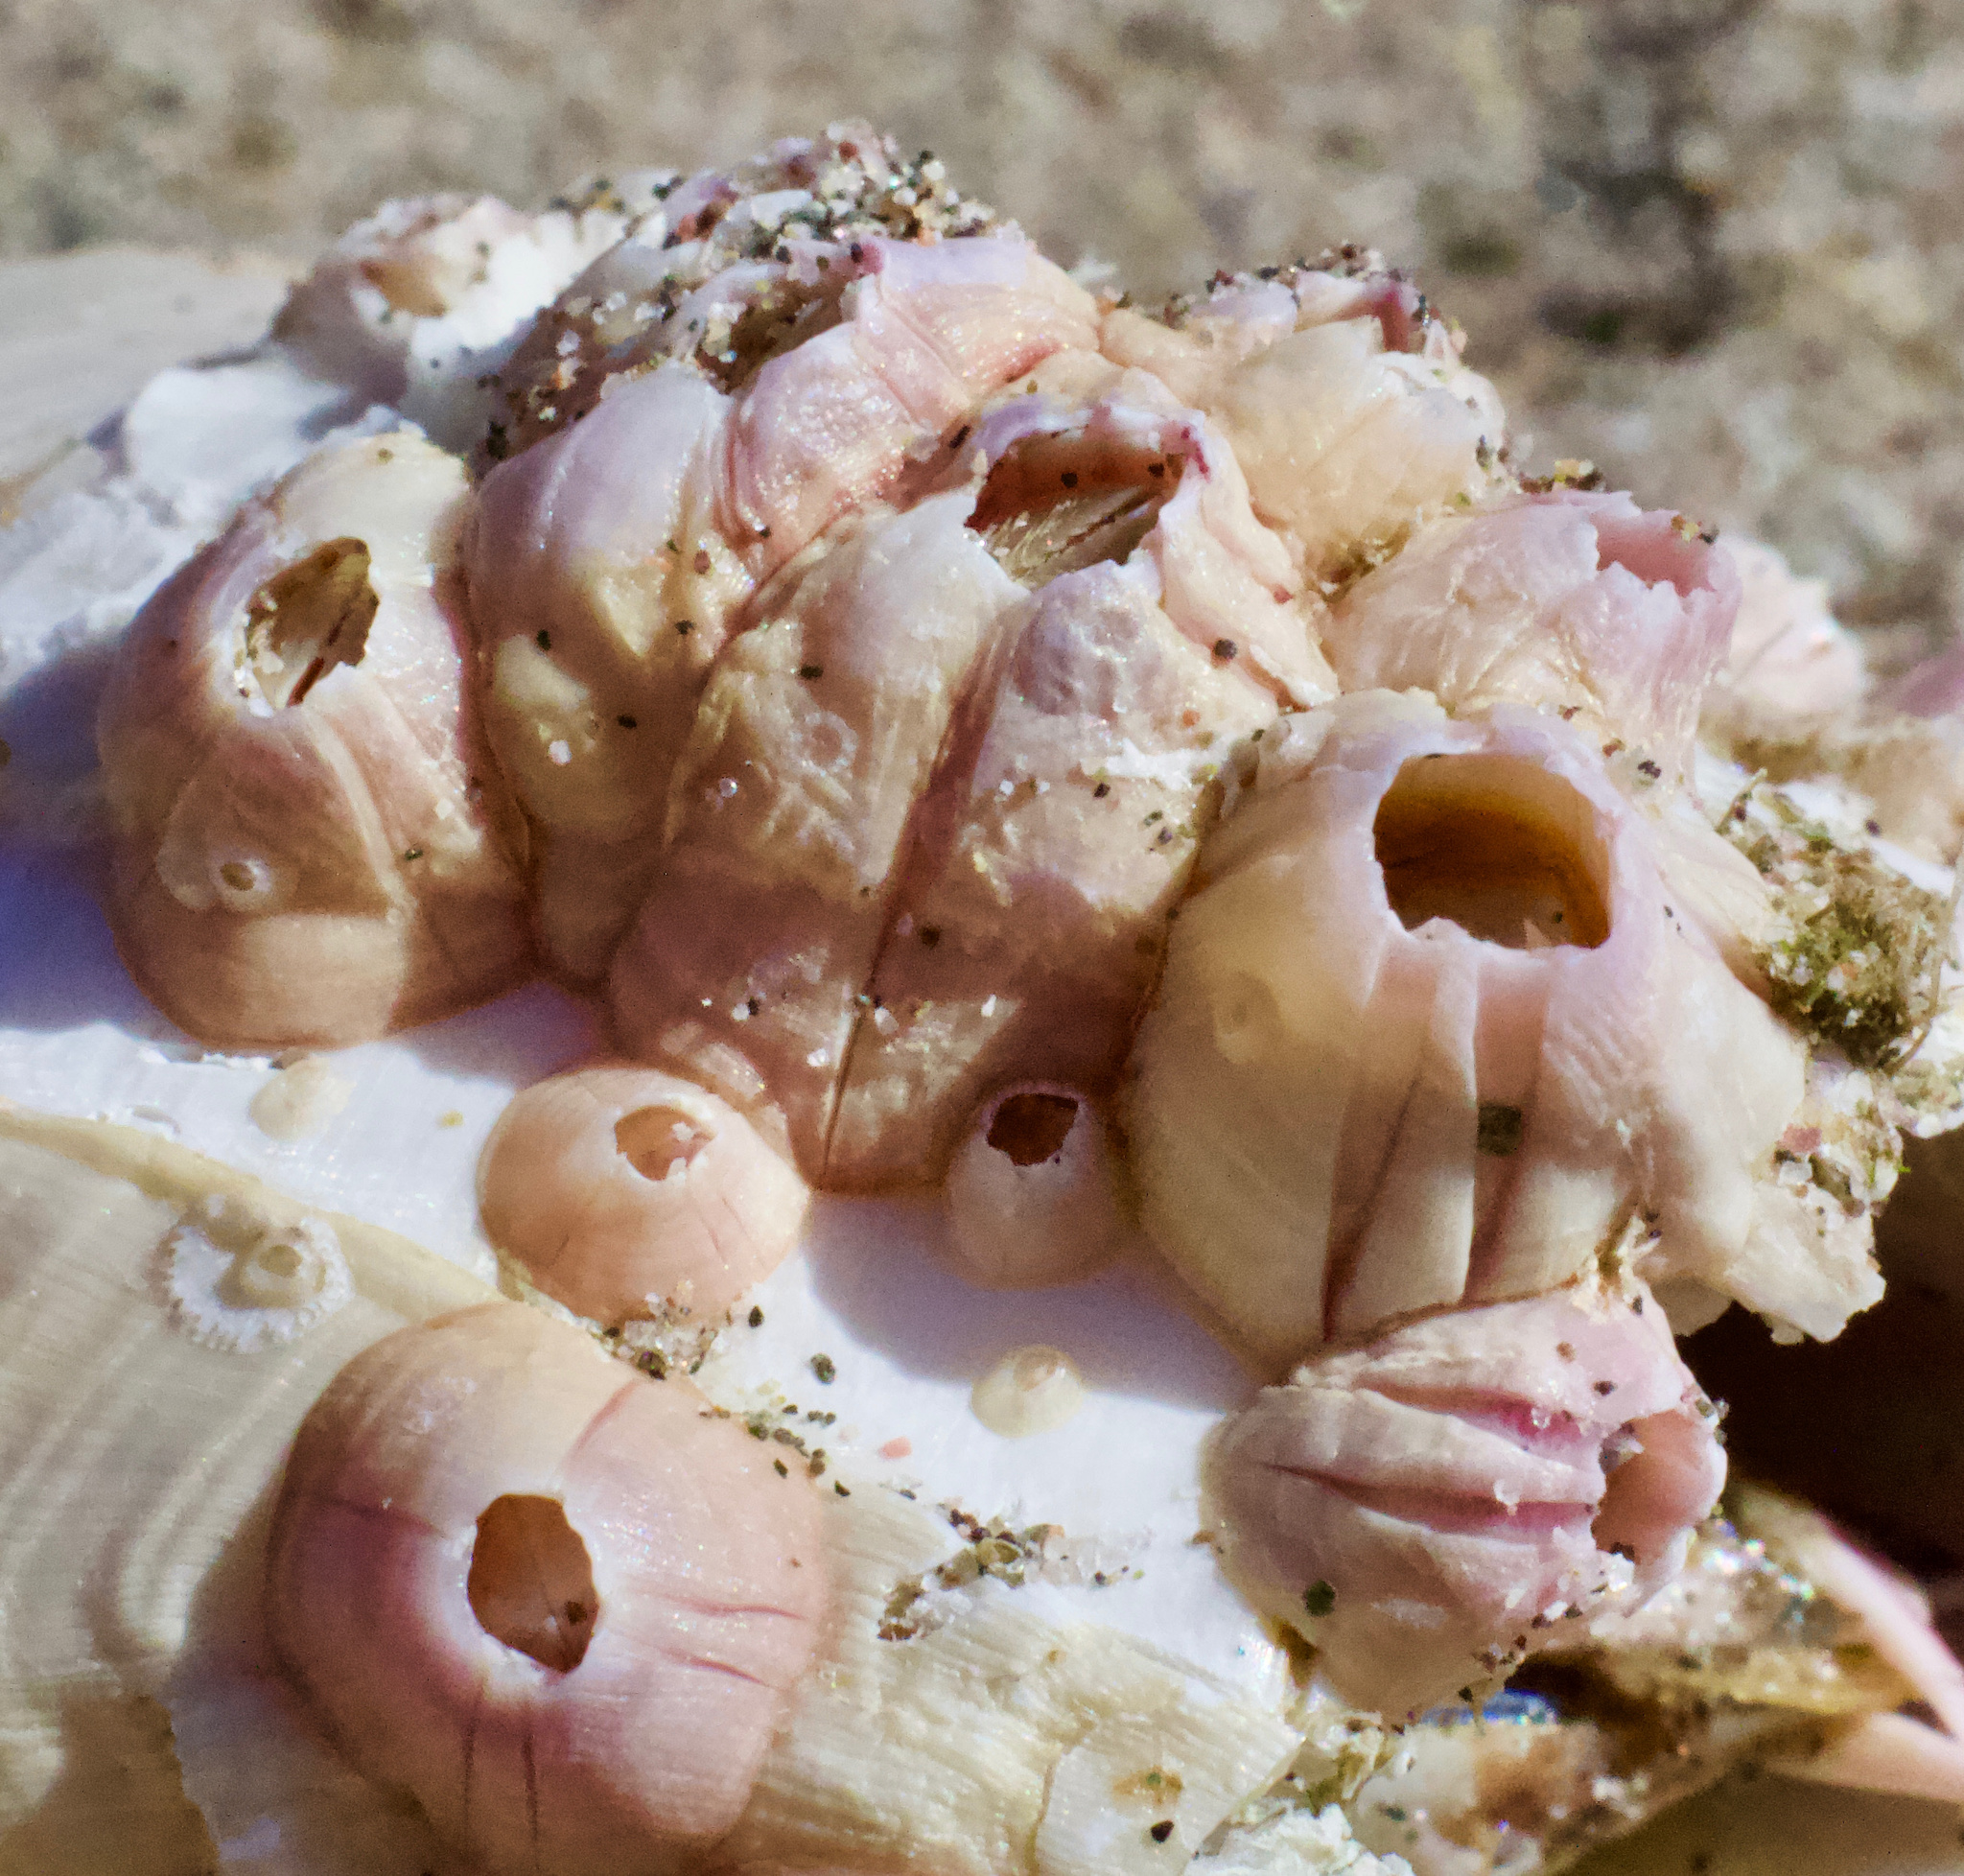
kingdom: Animalia
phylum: Arthropoda
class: Maxillopoda
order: Sessilia
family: Balanidae
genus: Balanus
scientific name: Balanus laevis
